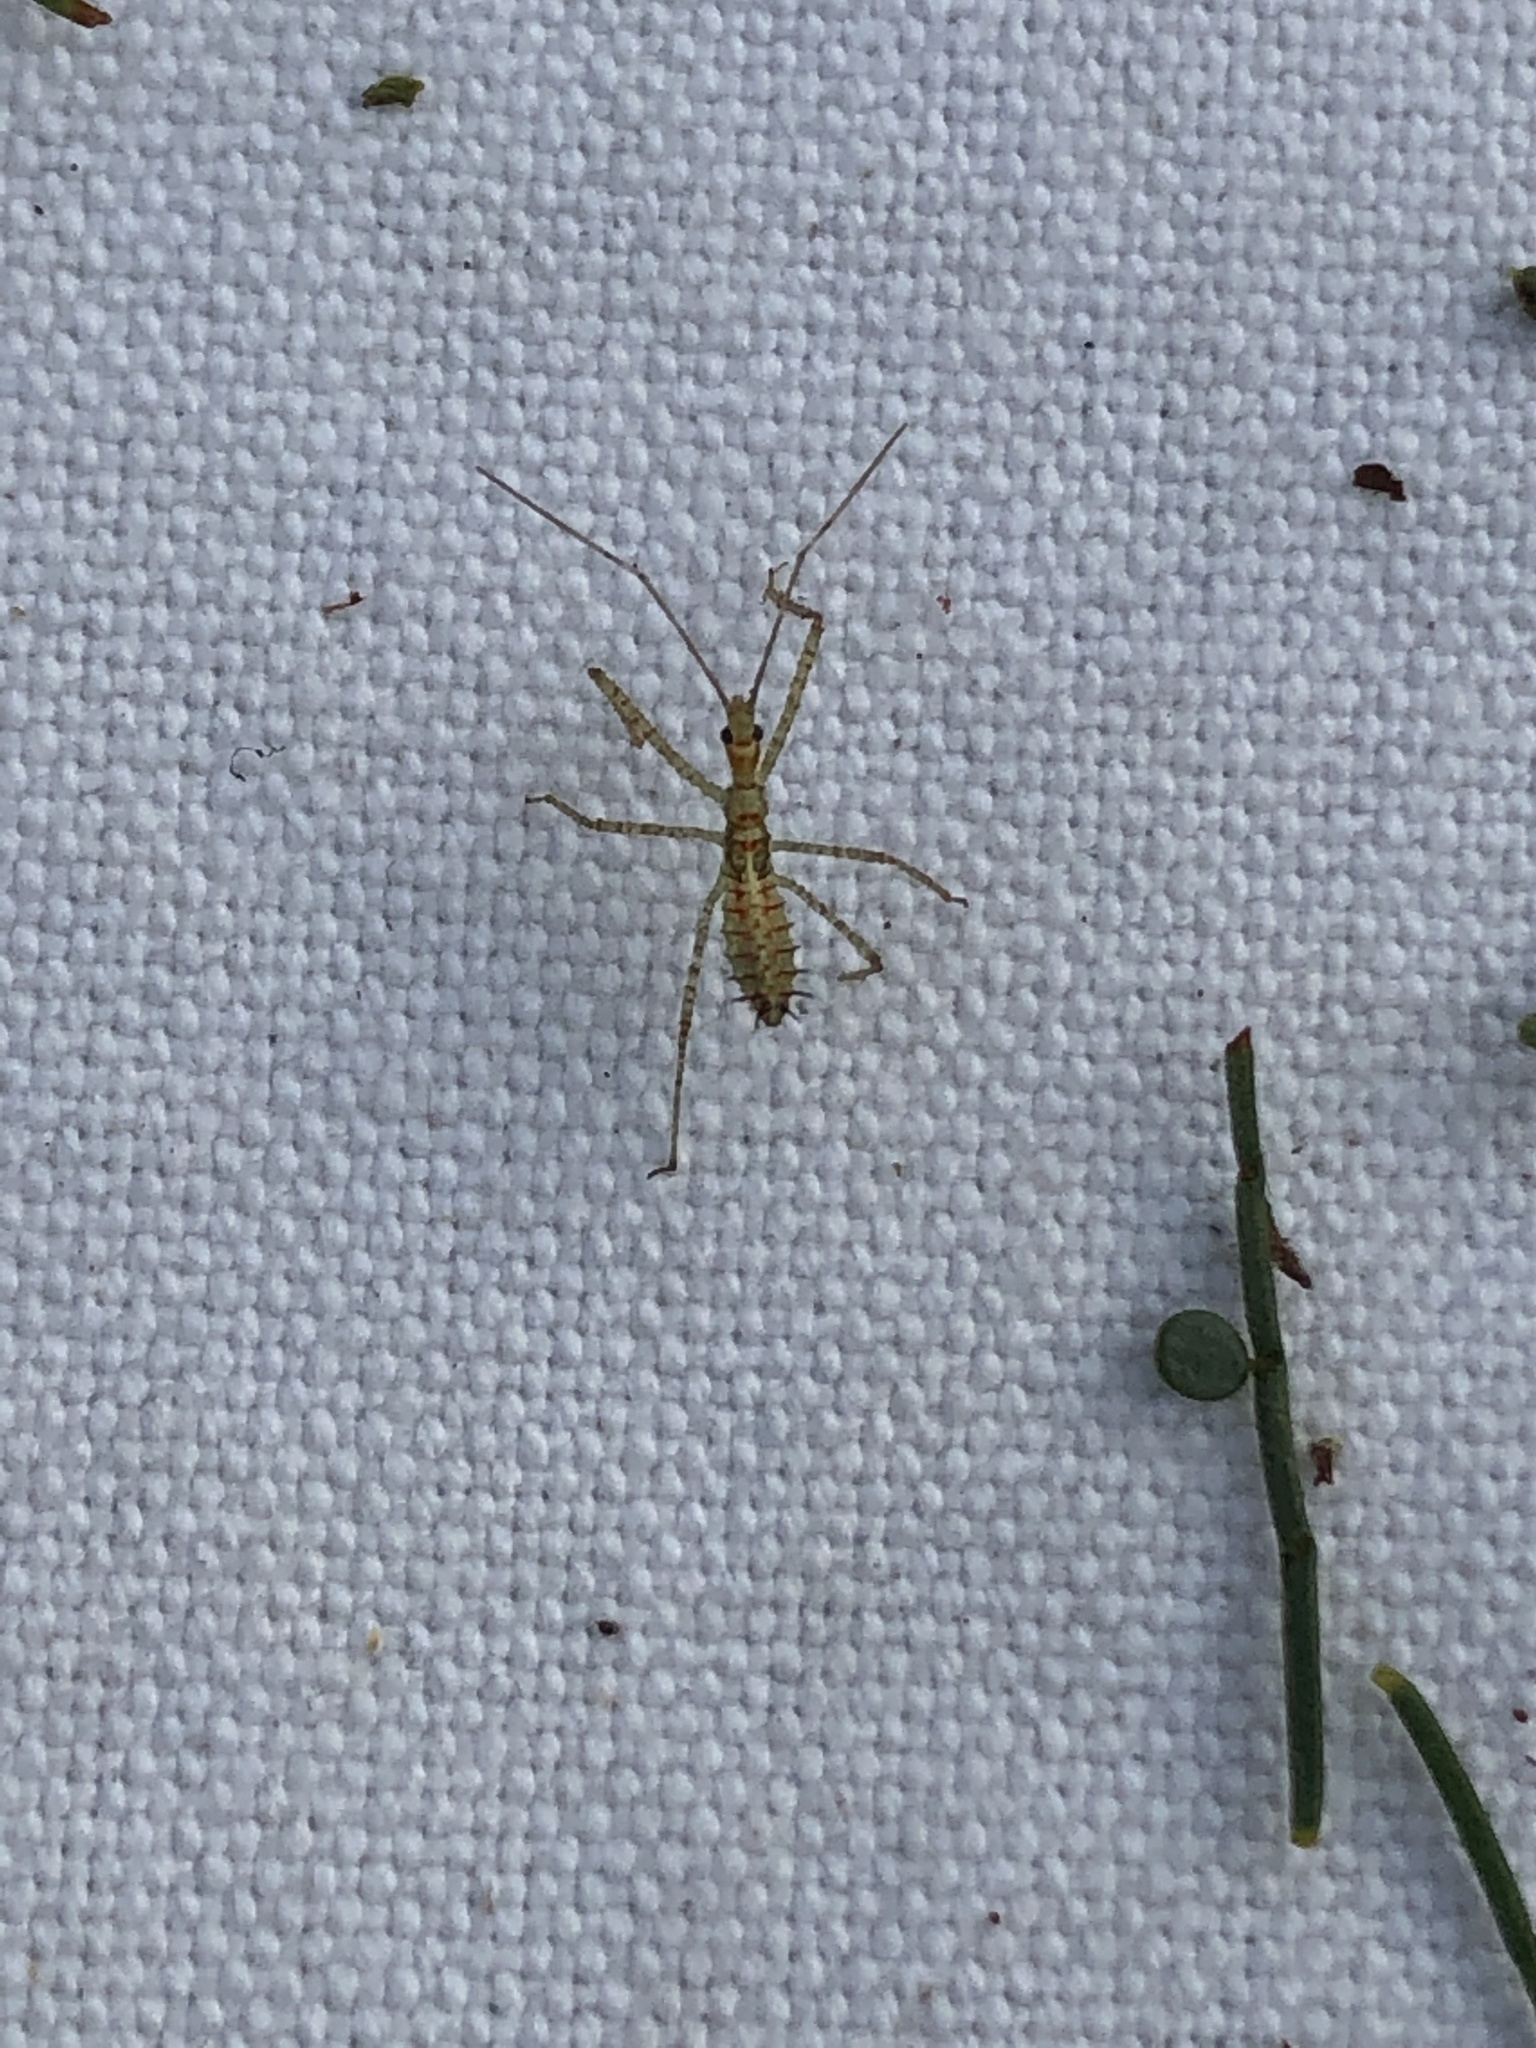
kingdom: Animalia
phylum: Arthropoda
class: Insecta
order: Hemiptera
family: Reduviidae
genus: Zelus
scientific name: Zelus renardii
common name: Assassin bug
